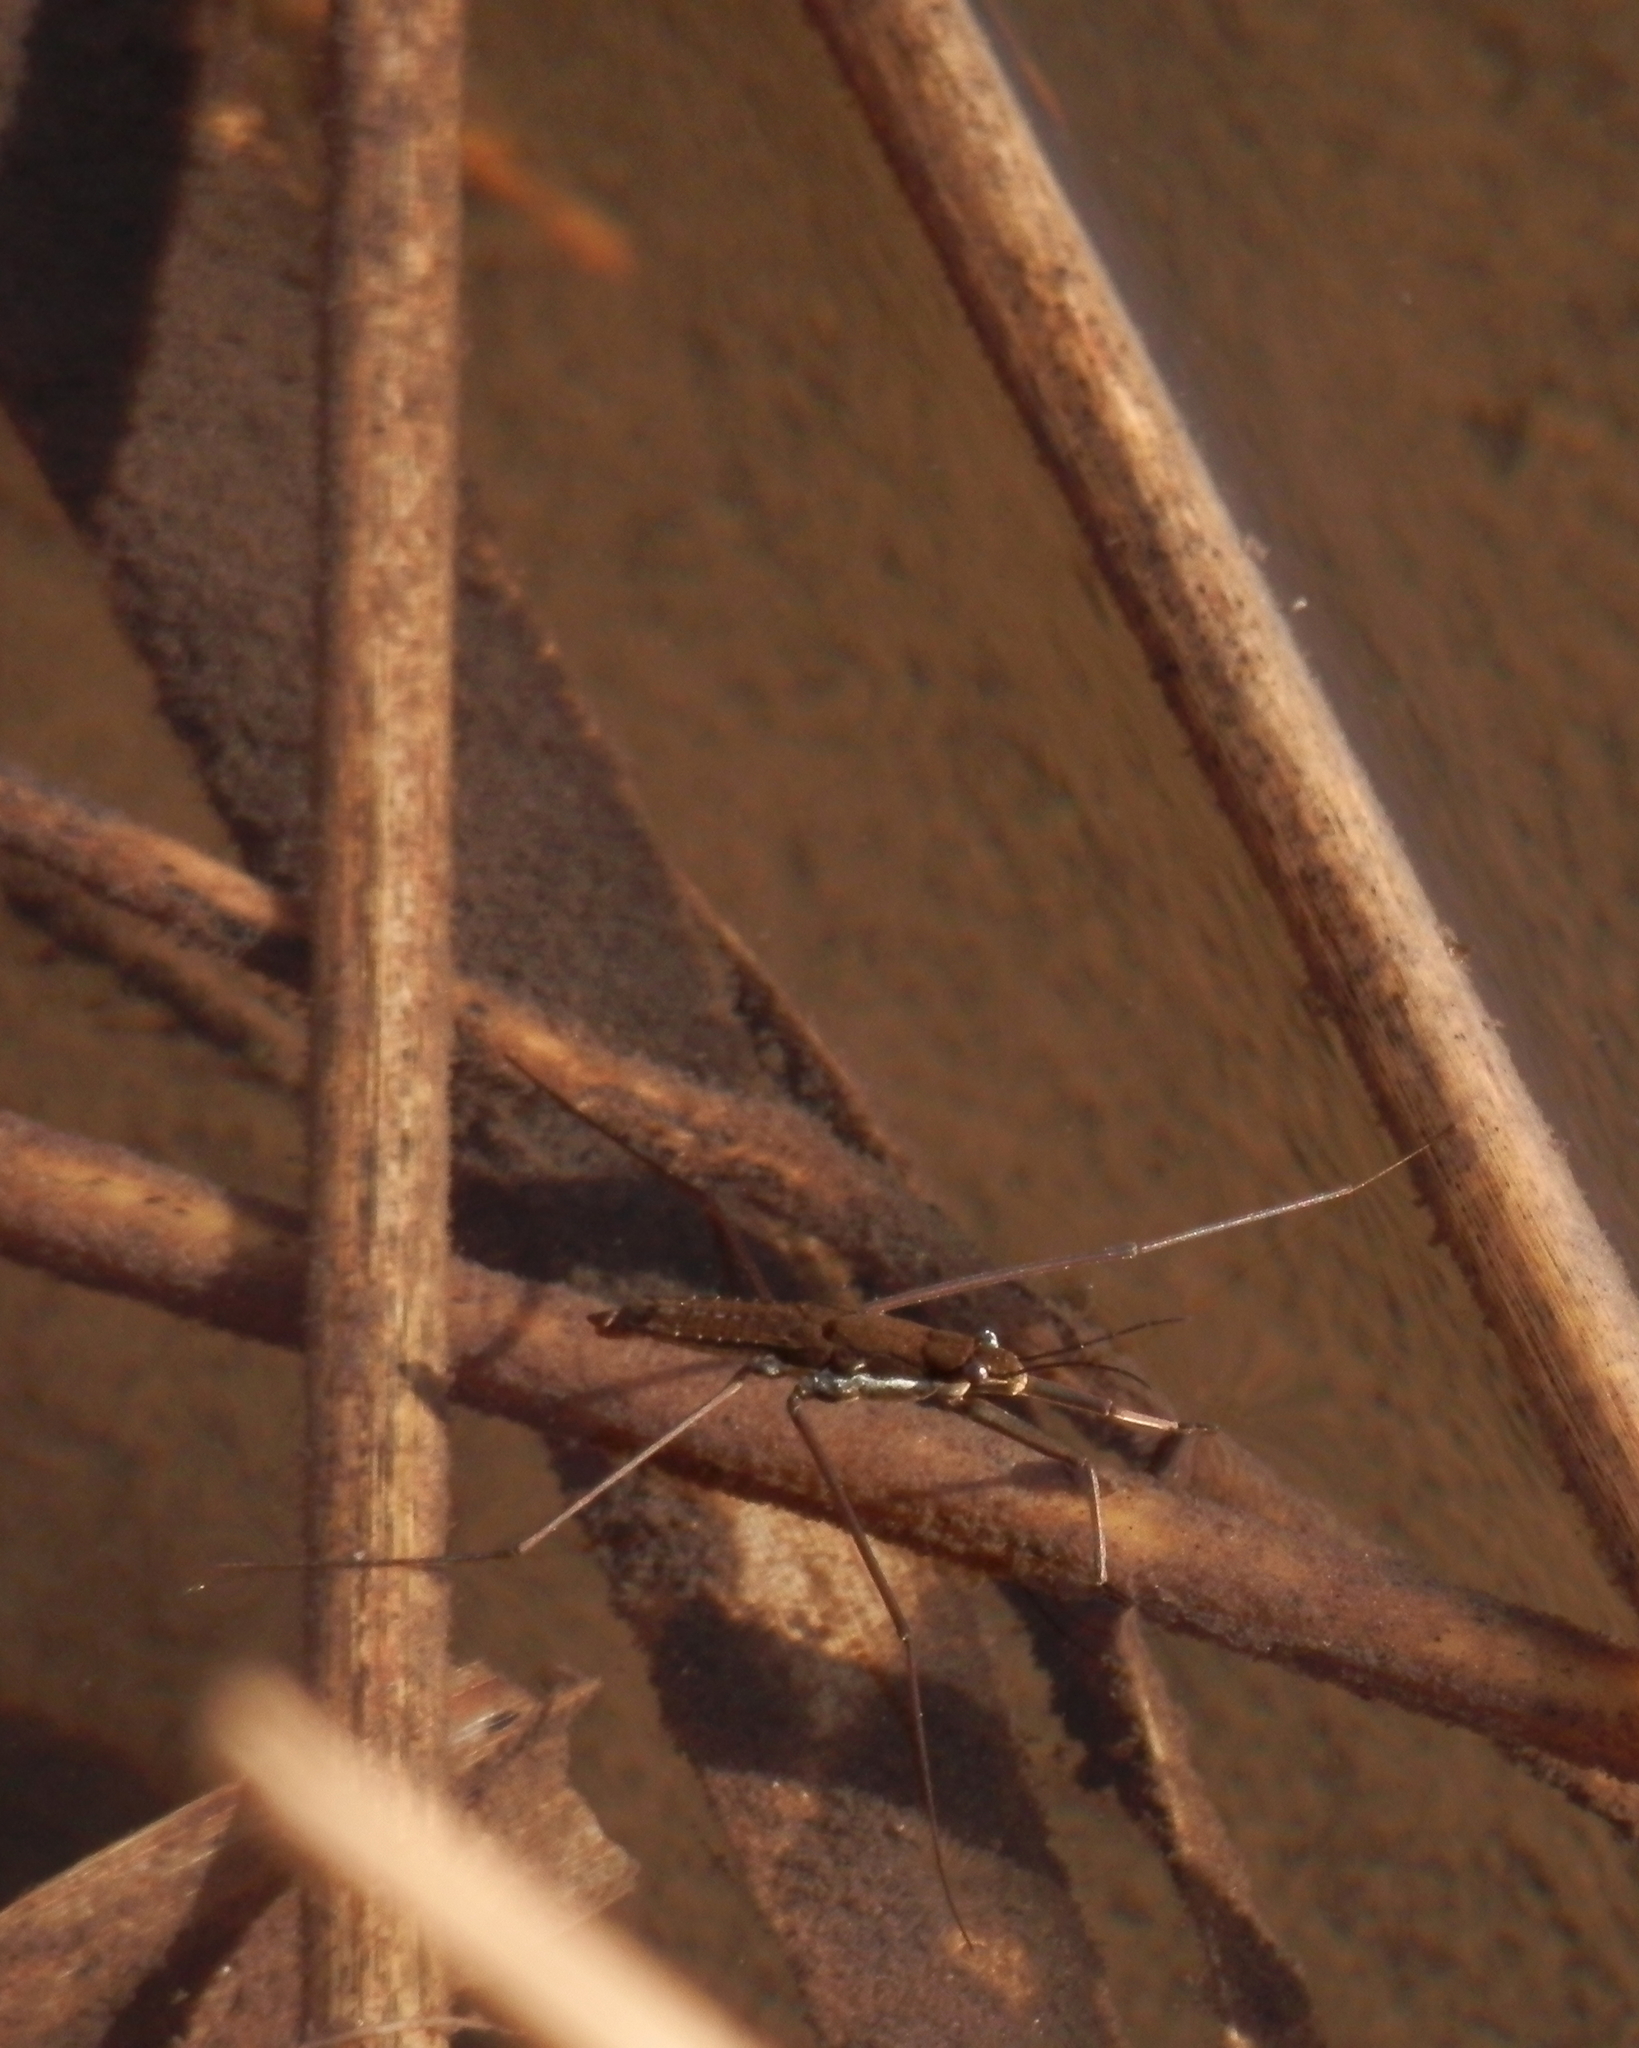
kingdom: Animalia
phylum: Arthropoda
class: Insecta
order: Hemiptera
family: Gerridae
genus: Aquarius
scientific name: Aquarius remigis
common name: Common water strider
